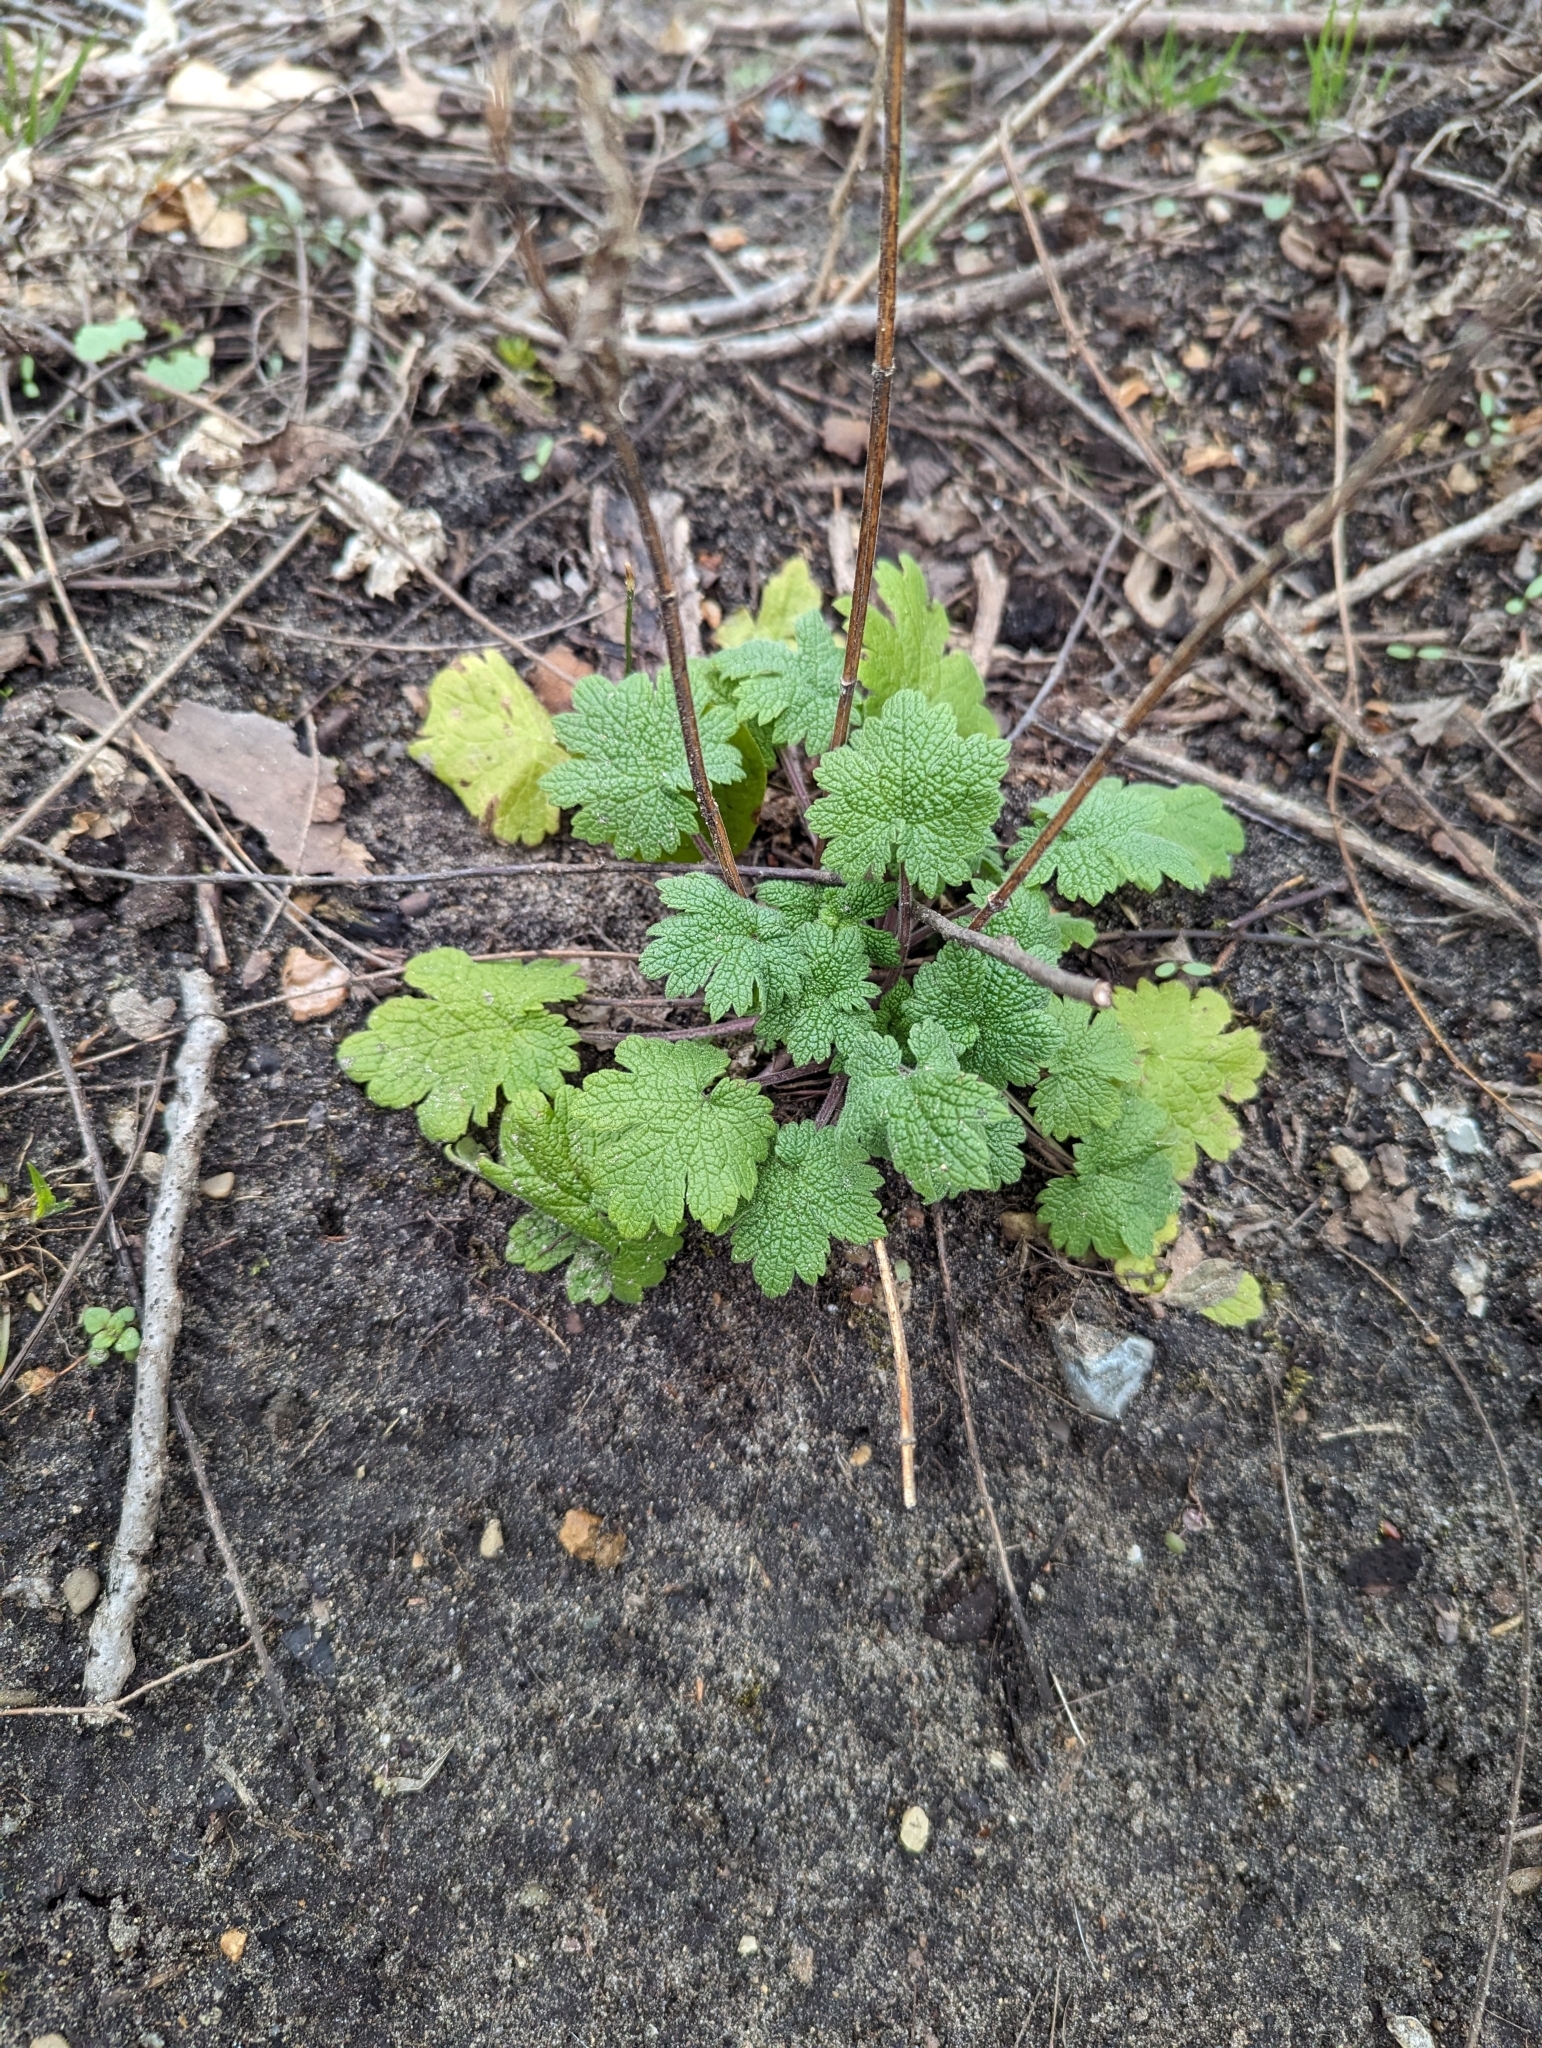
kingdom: Plantae
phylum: Tracheophyta
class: Magnoliopsida
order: Lamiales
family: Lamiaceae
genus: Leonurus
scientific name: Leonurus cardiaca
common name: Motherwort
